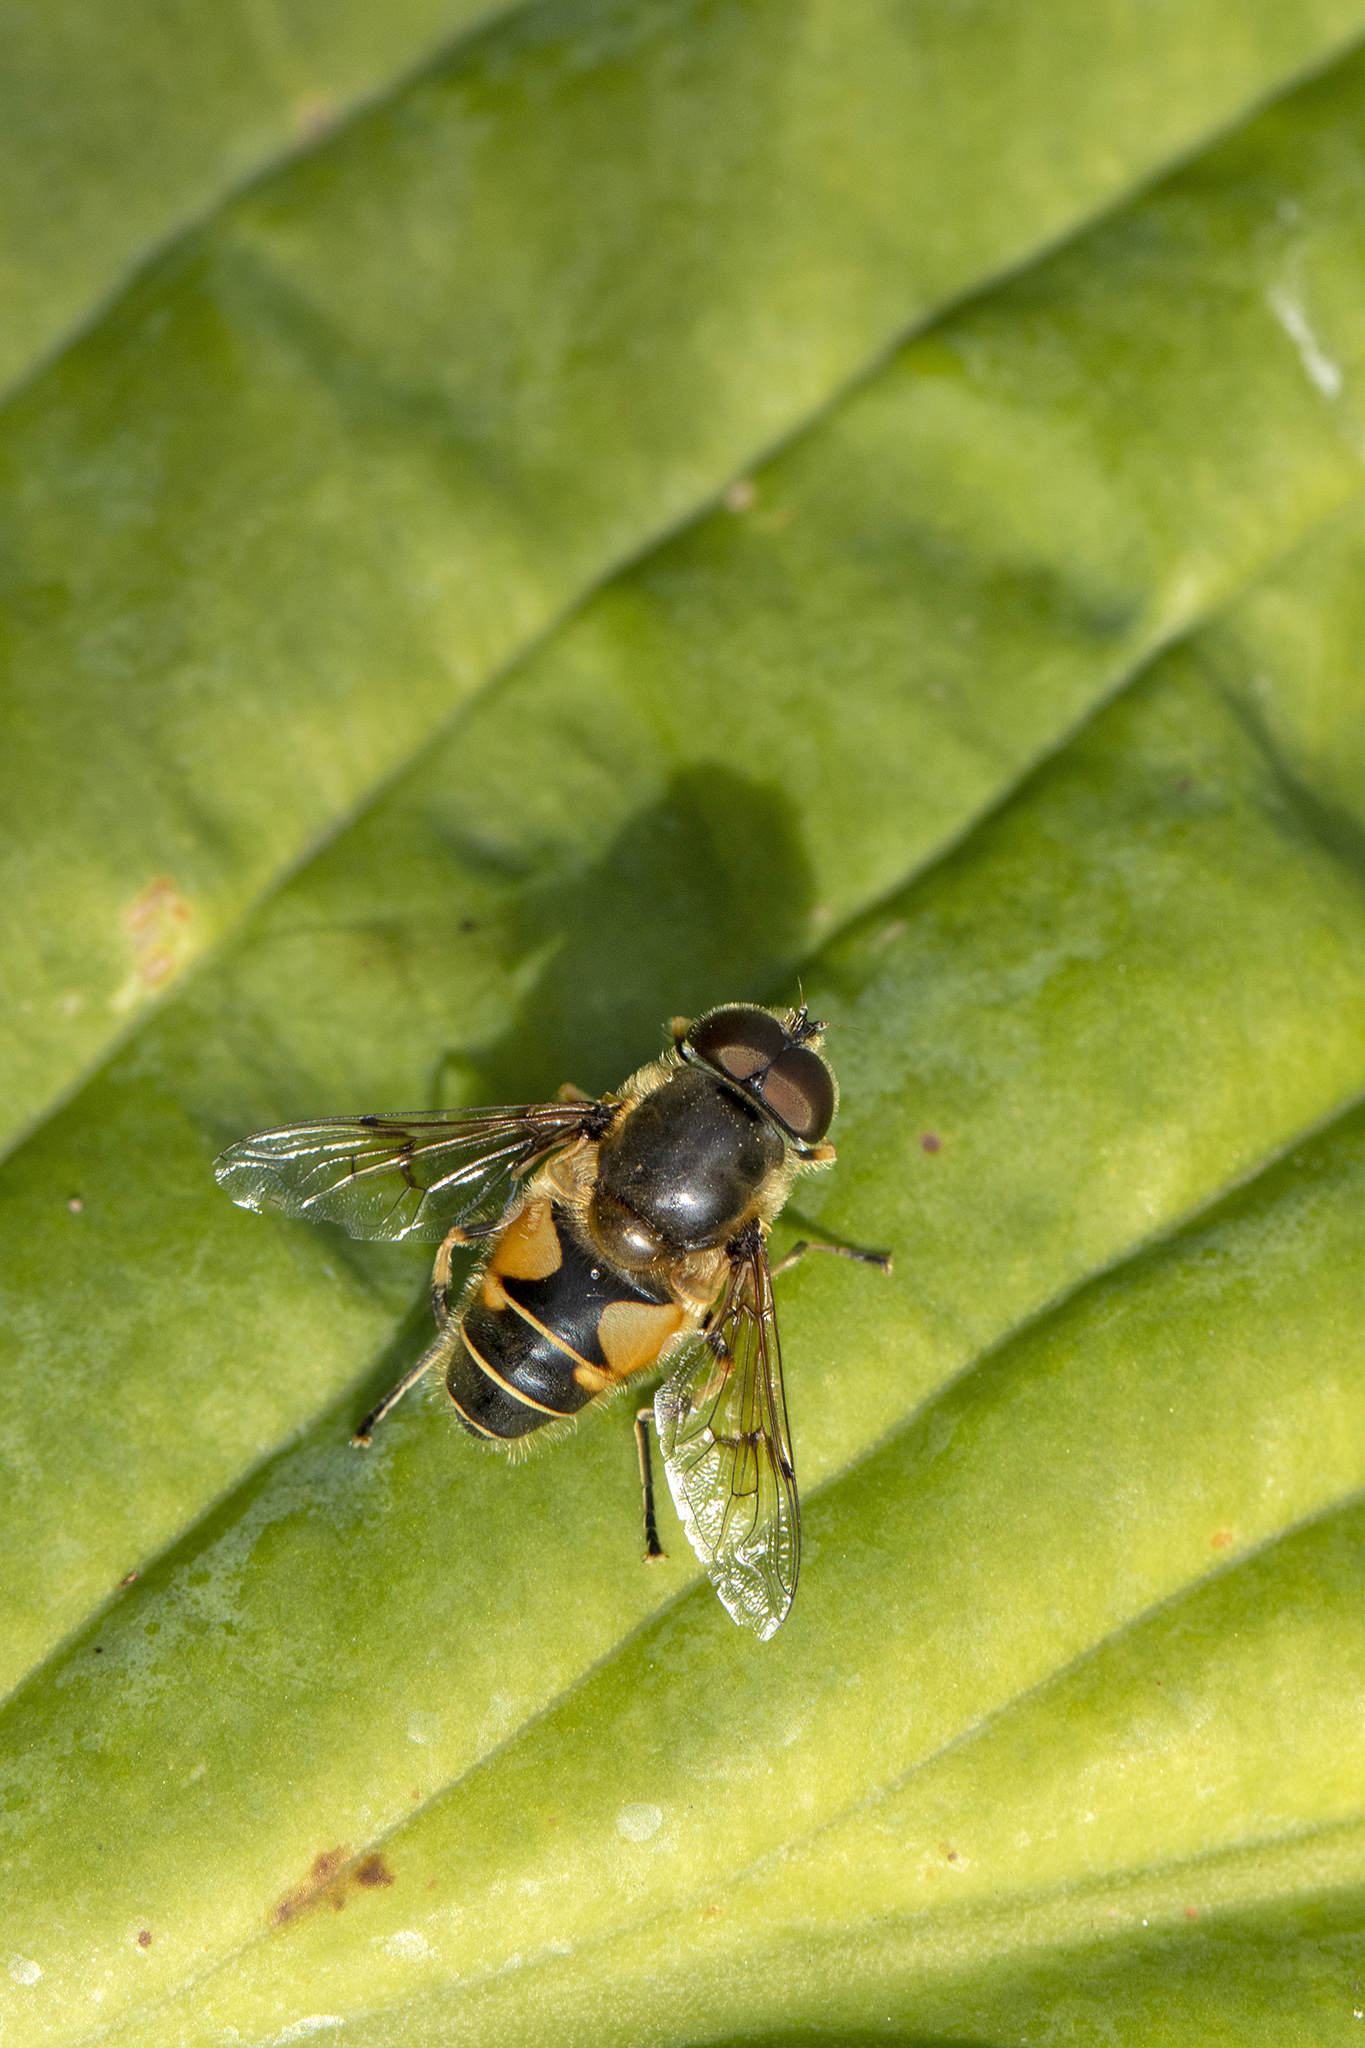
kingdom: Animalia
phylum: Arthropoda
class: Insecta
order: Diptera
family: Syrphidae
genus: Cheilosia
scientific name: Cheilosia morio
